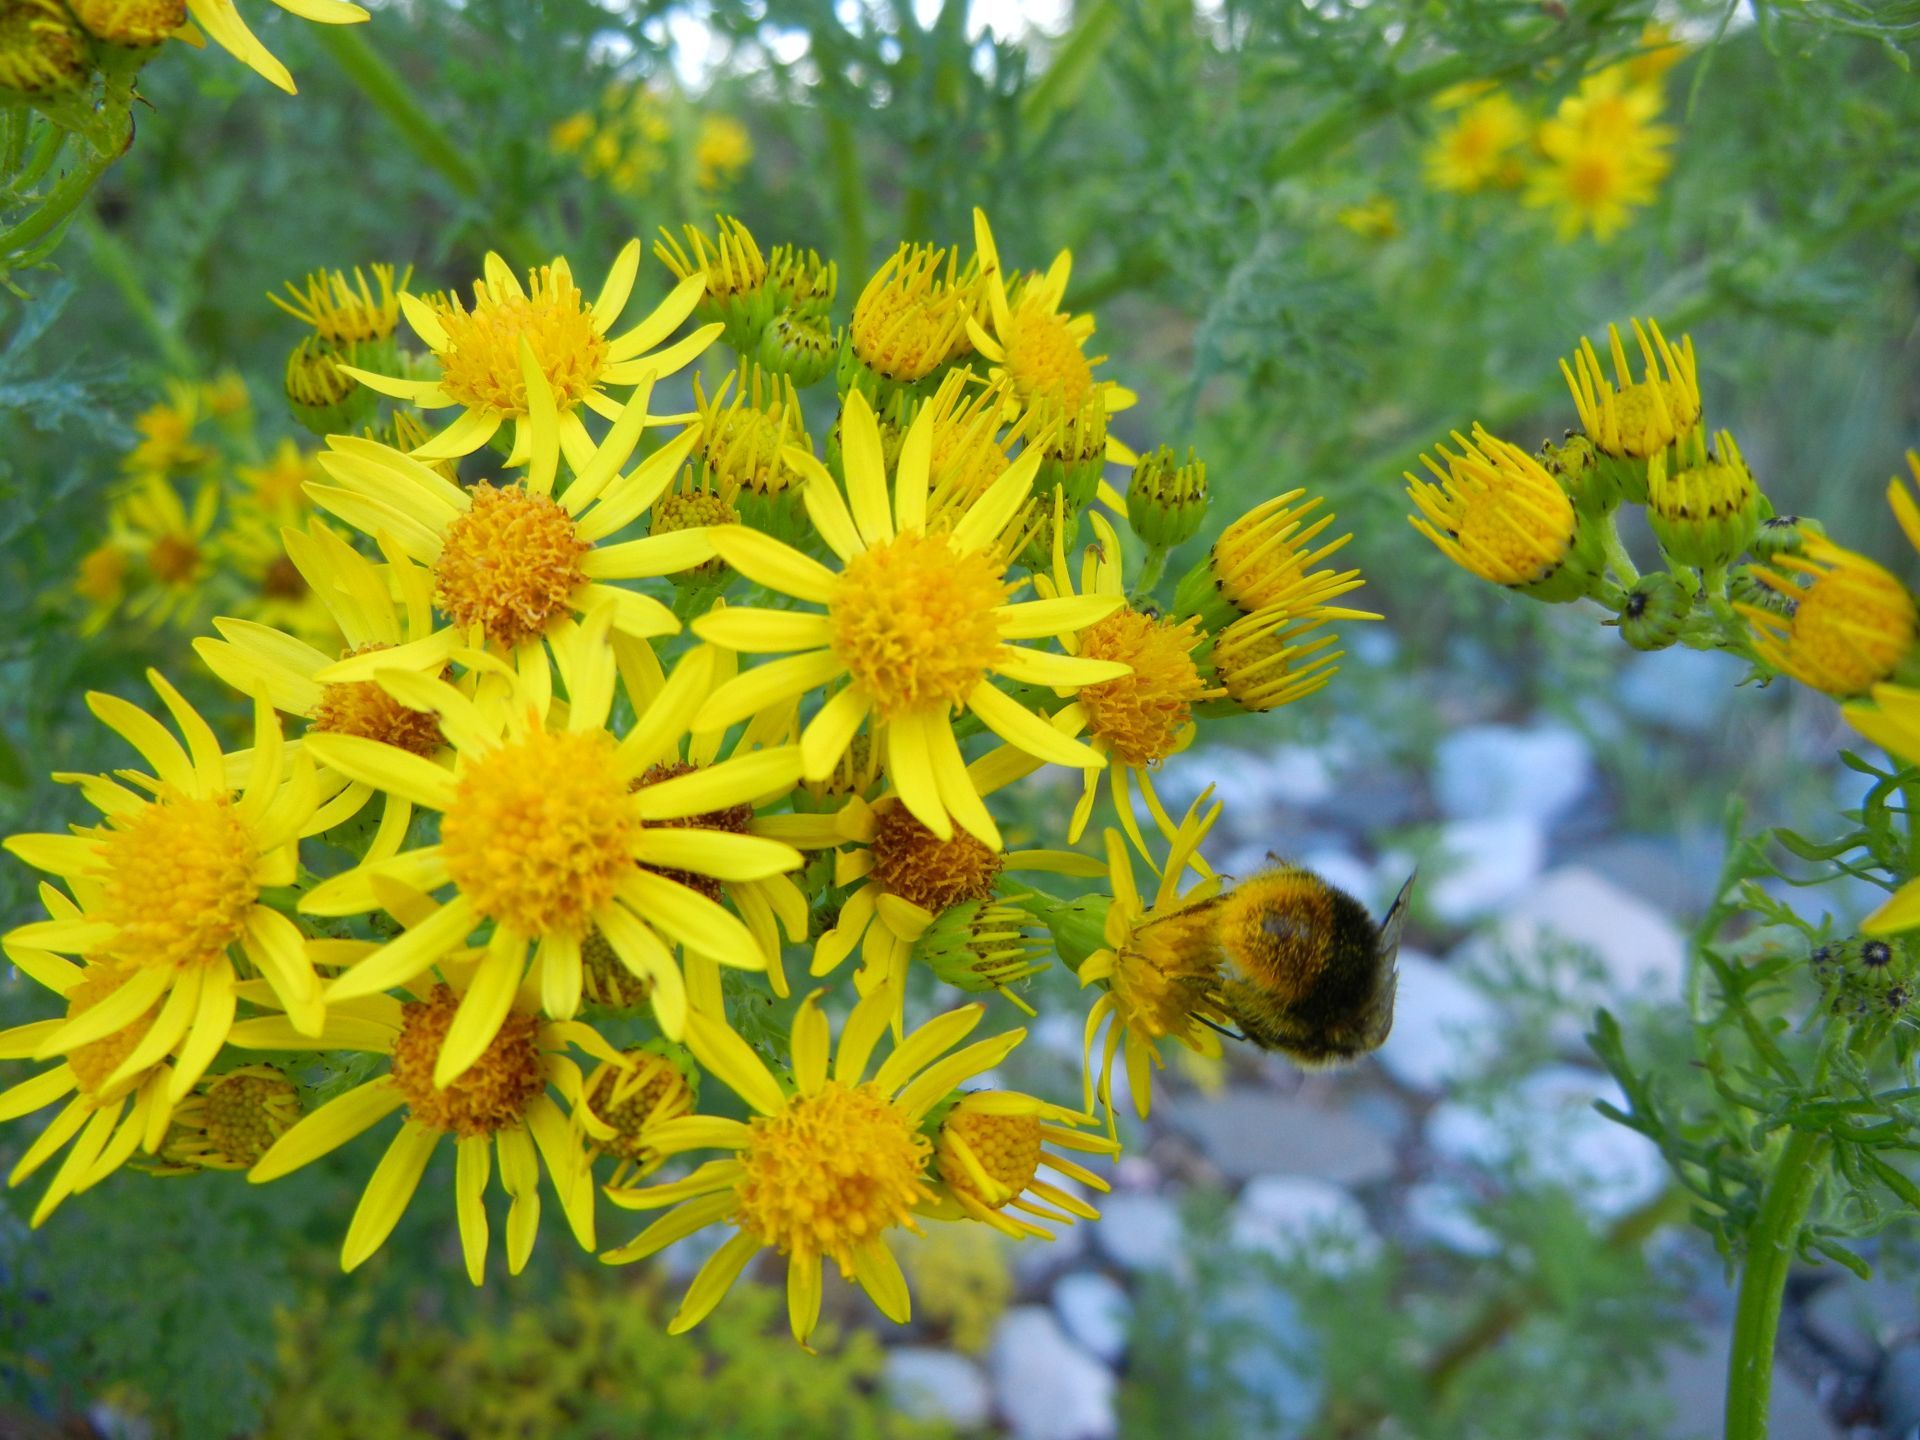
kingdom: Plantae
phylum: Tracheophyta
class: Magnoliopsida
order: Asterales
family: Asteraceae
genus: Jacobaea
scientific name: Jacobaea vulgaris
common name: Stinking willie
